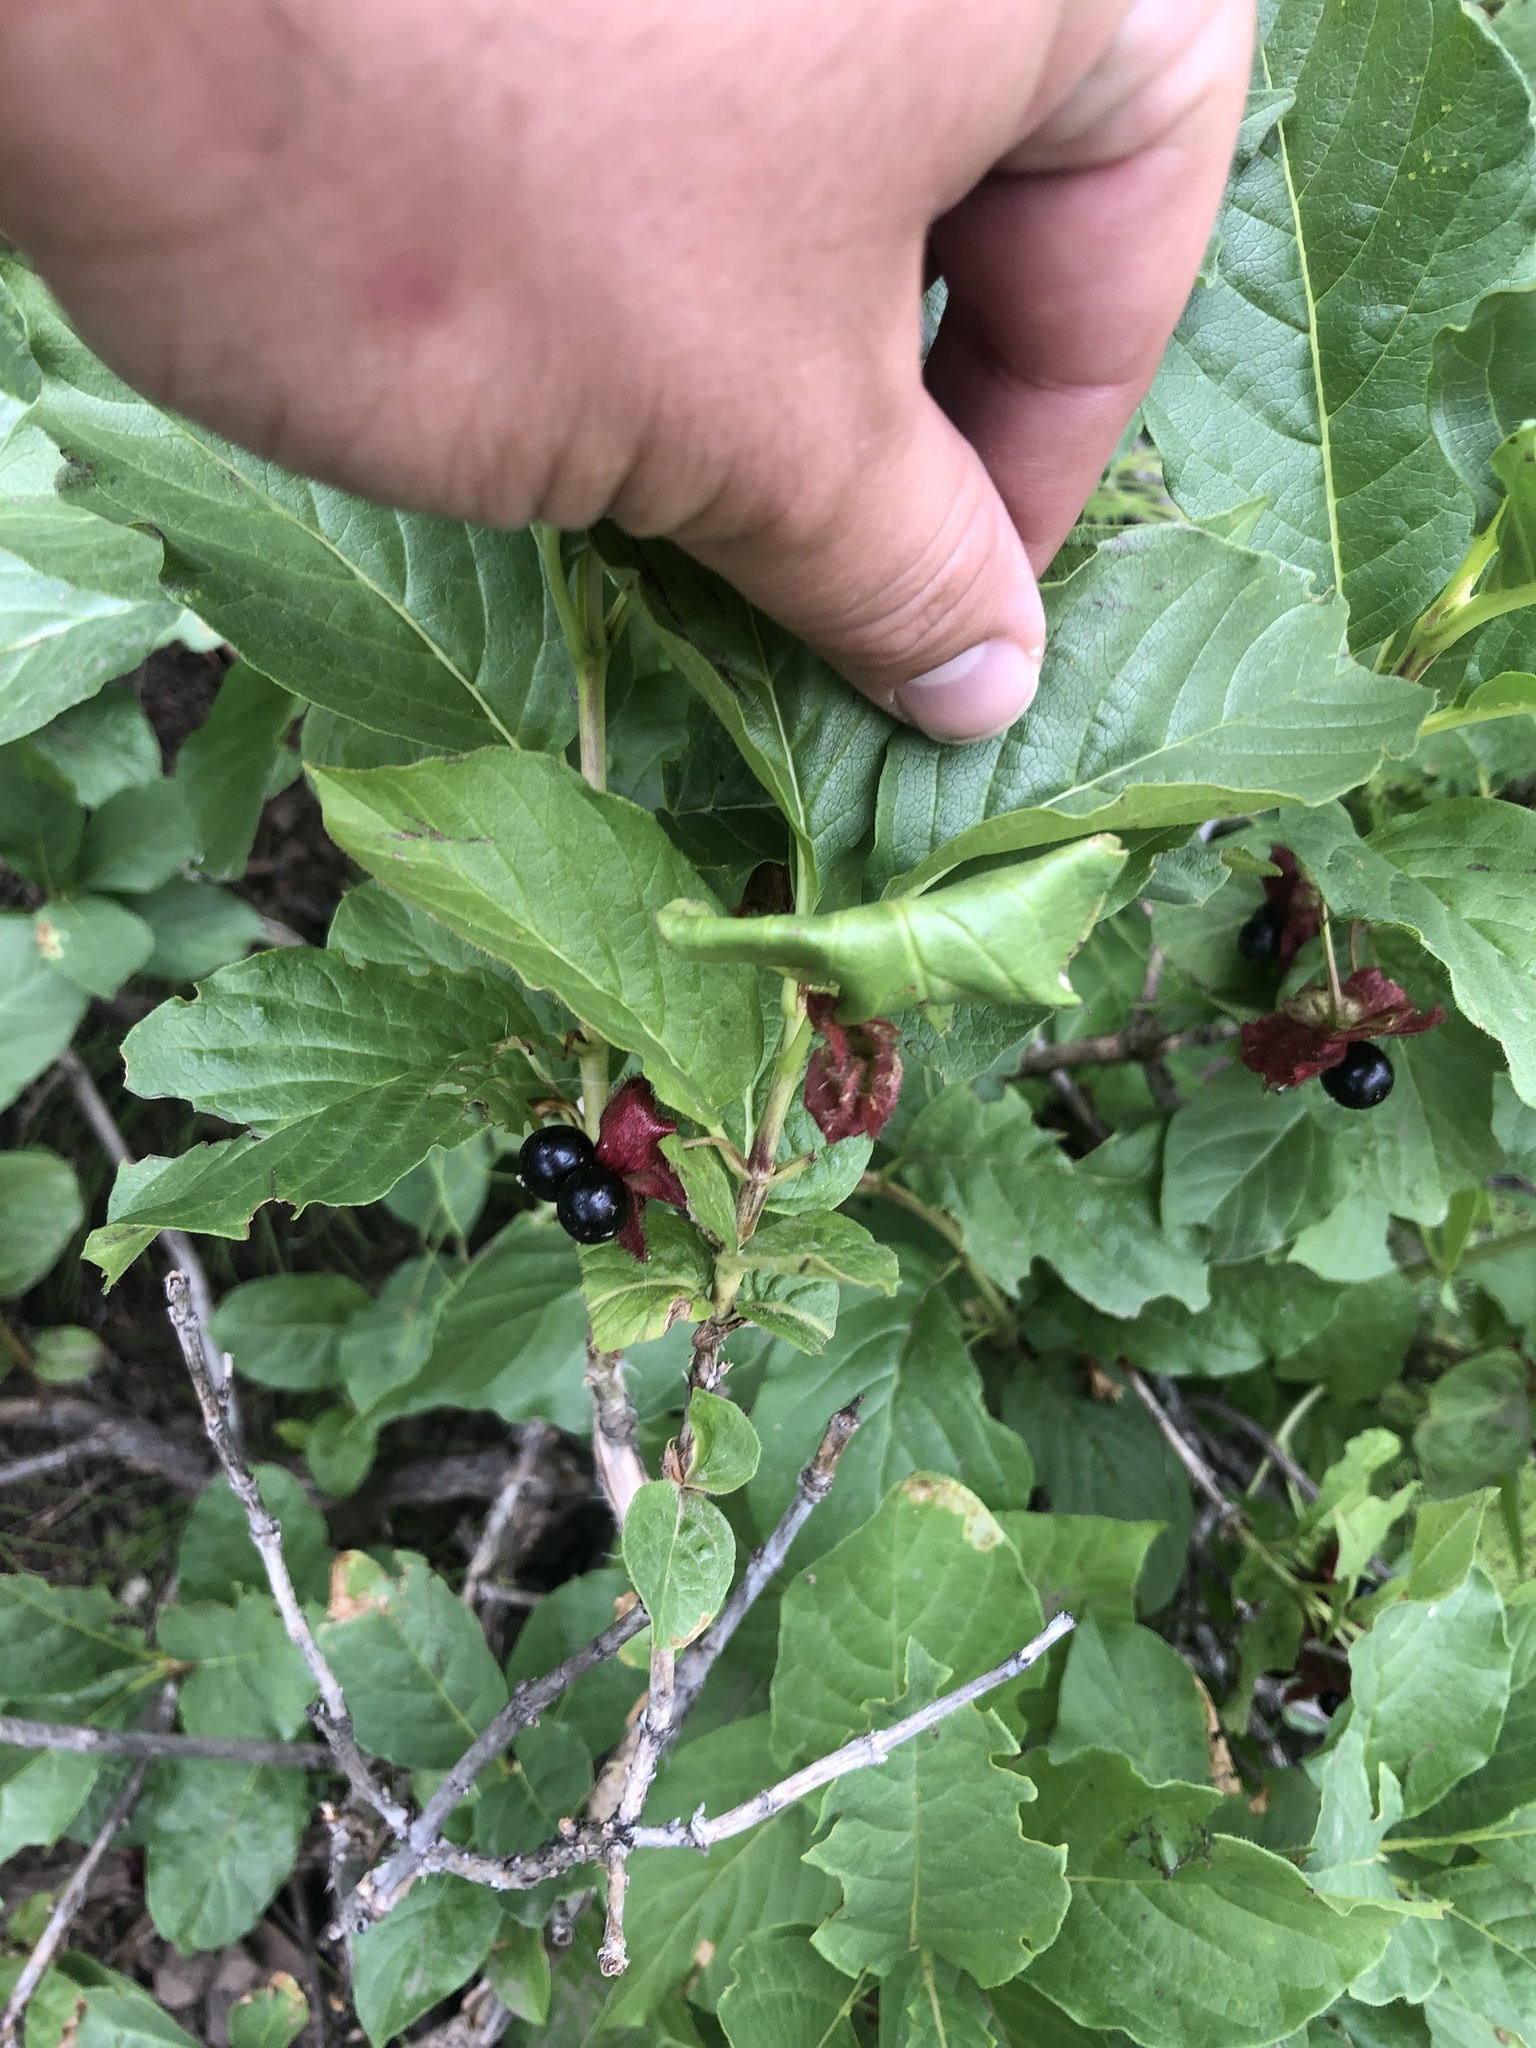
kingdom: Plantae
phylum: Tracheophyta
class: Magnoliopsida
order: Dipsacales
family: Caprifoliaceae
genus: Lonicera
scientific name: Lonicera involucrata
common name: Californian honeysuckle
